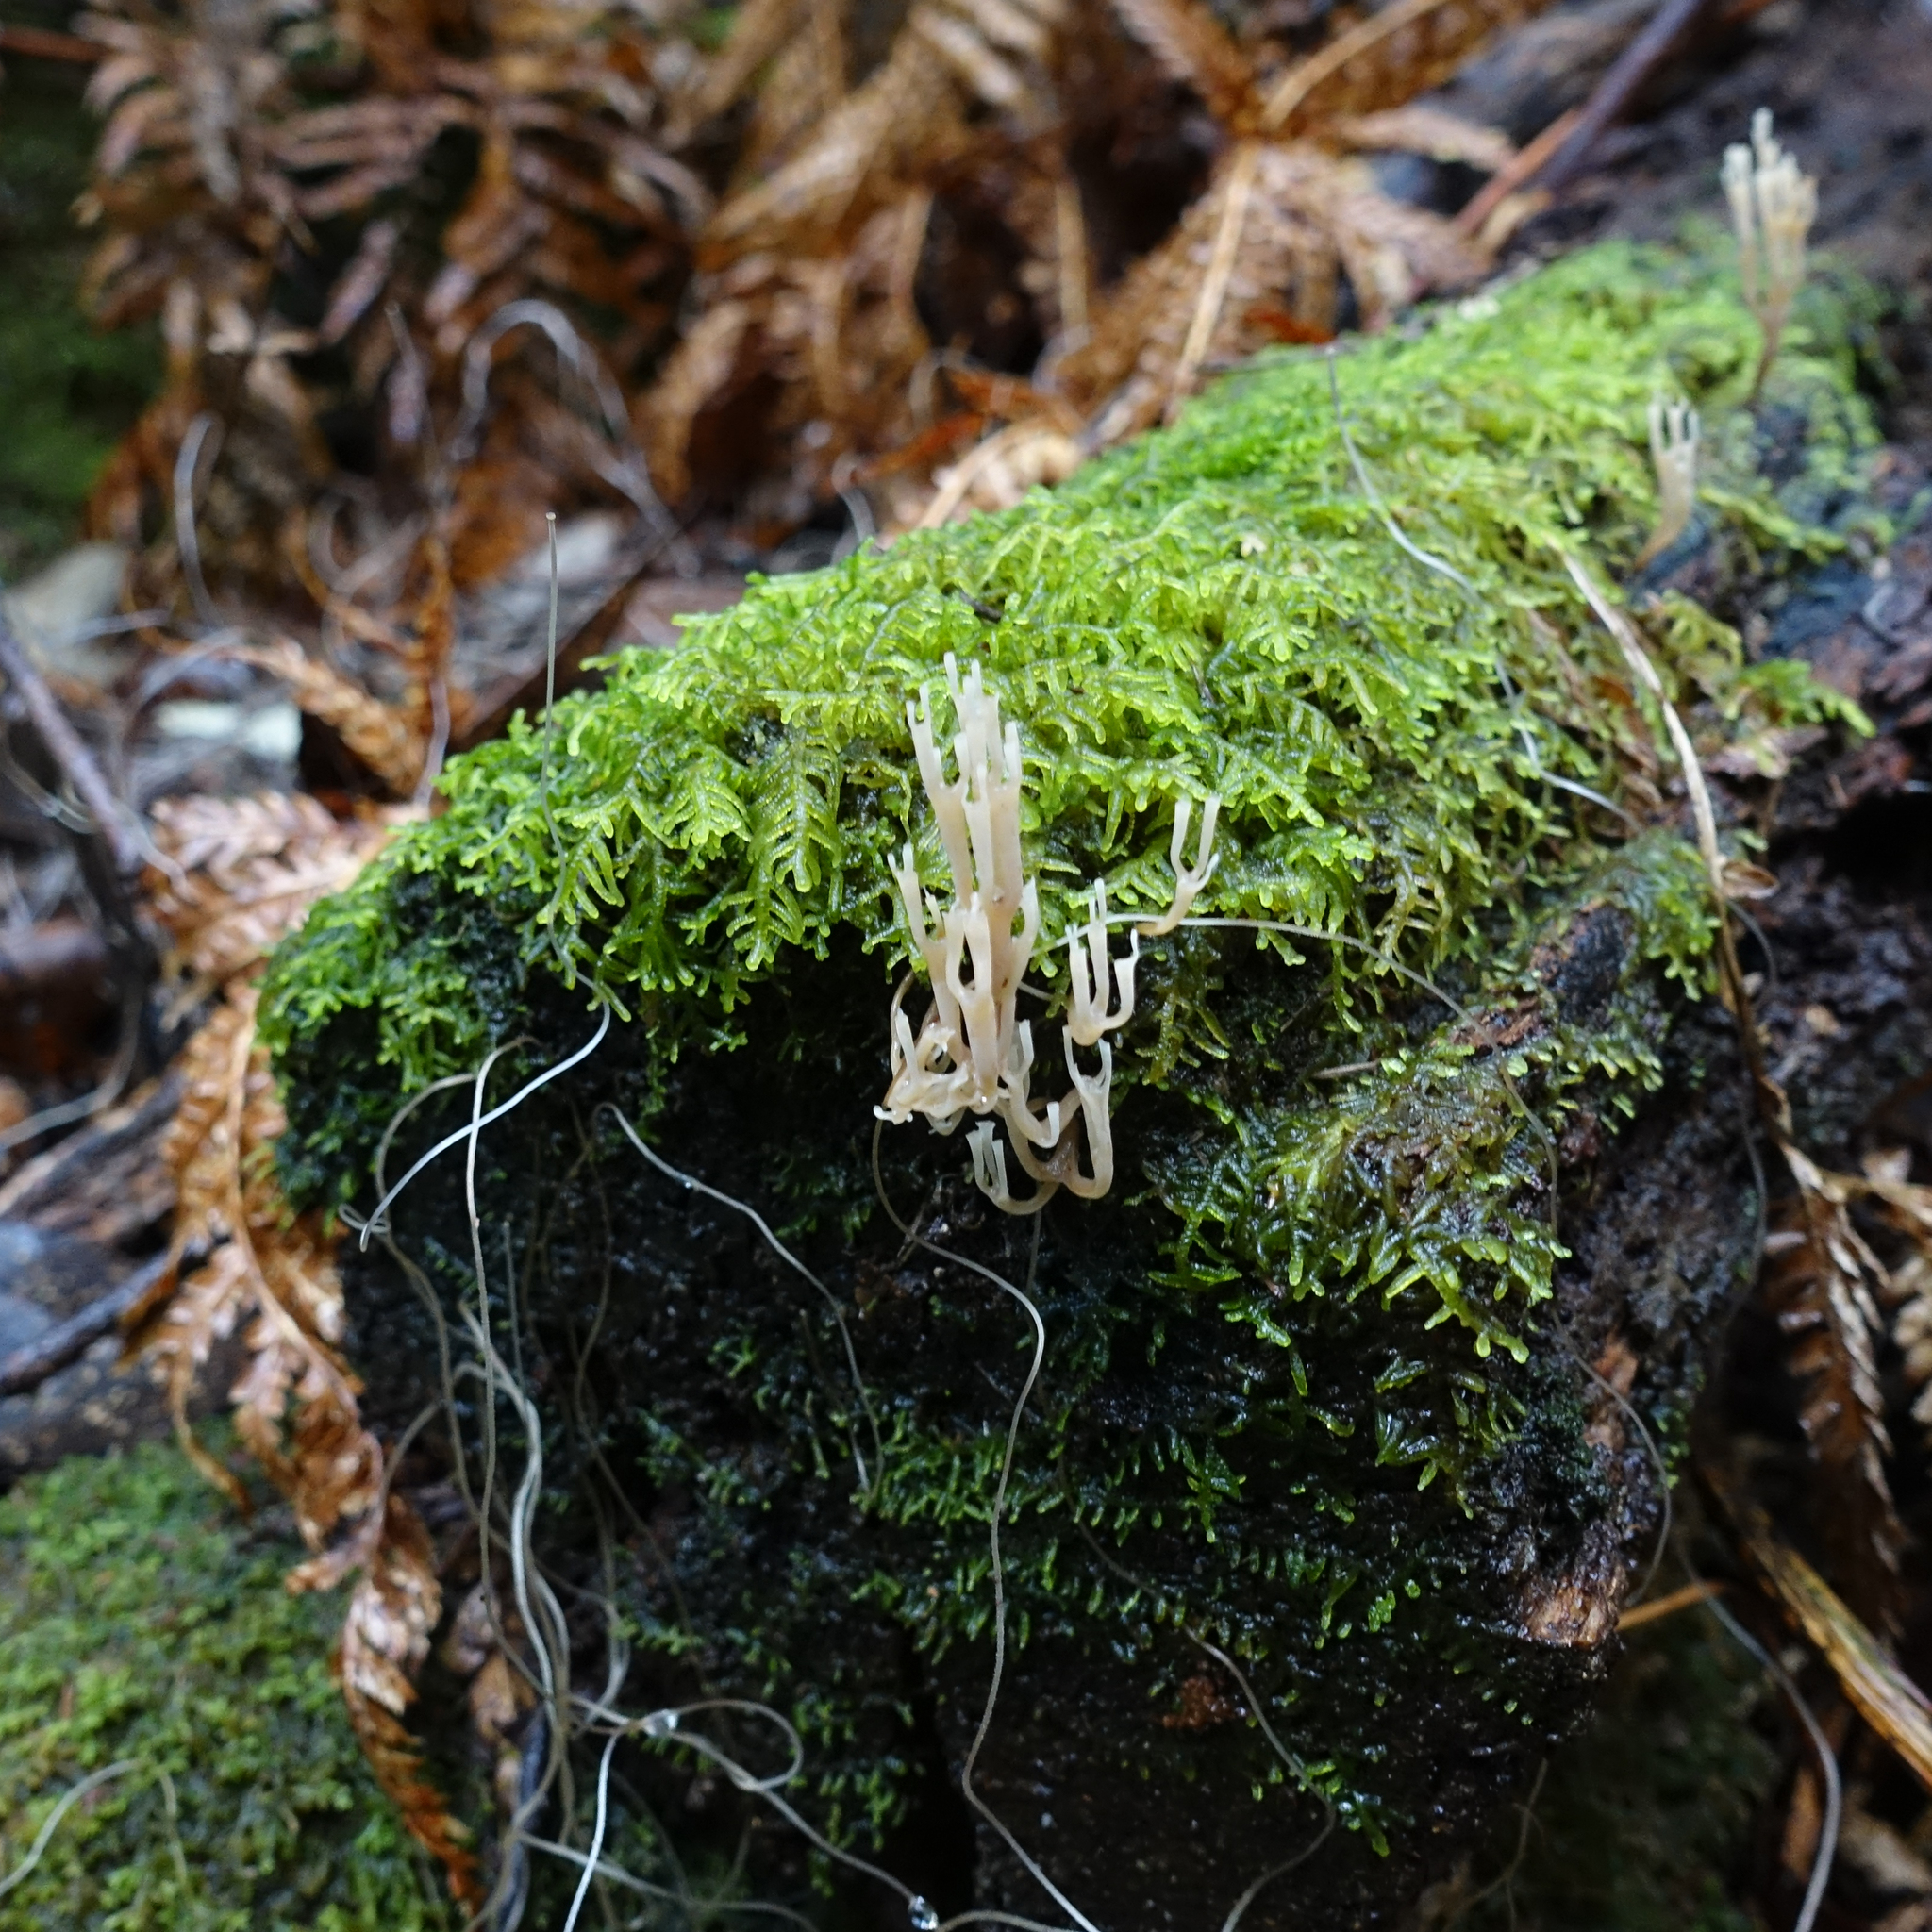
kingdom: Fungi
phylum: Basidiomycota
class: Agaricomycetes
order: Russulales
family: Auriscalpiaceae
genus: Artomyces
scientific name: Artomyces austropiperatus
